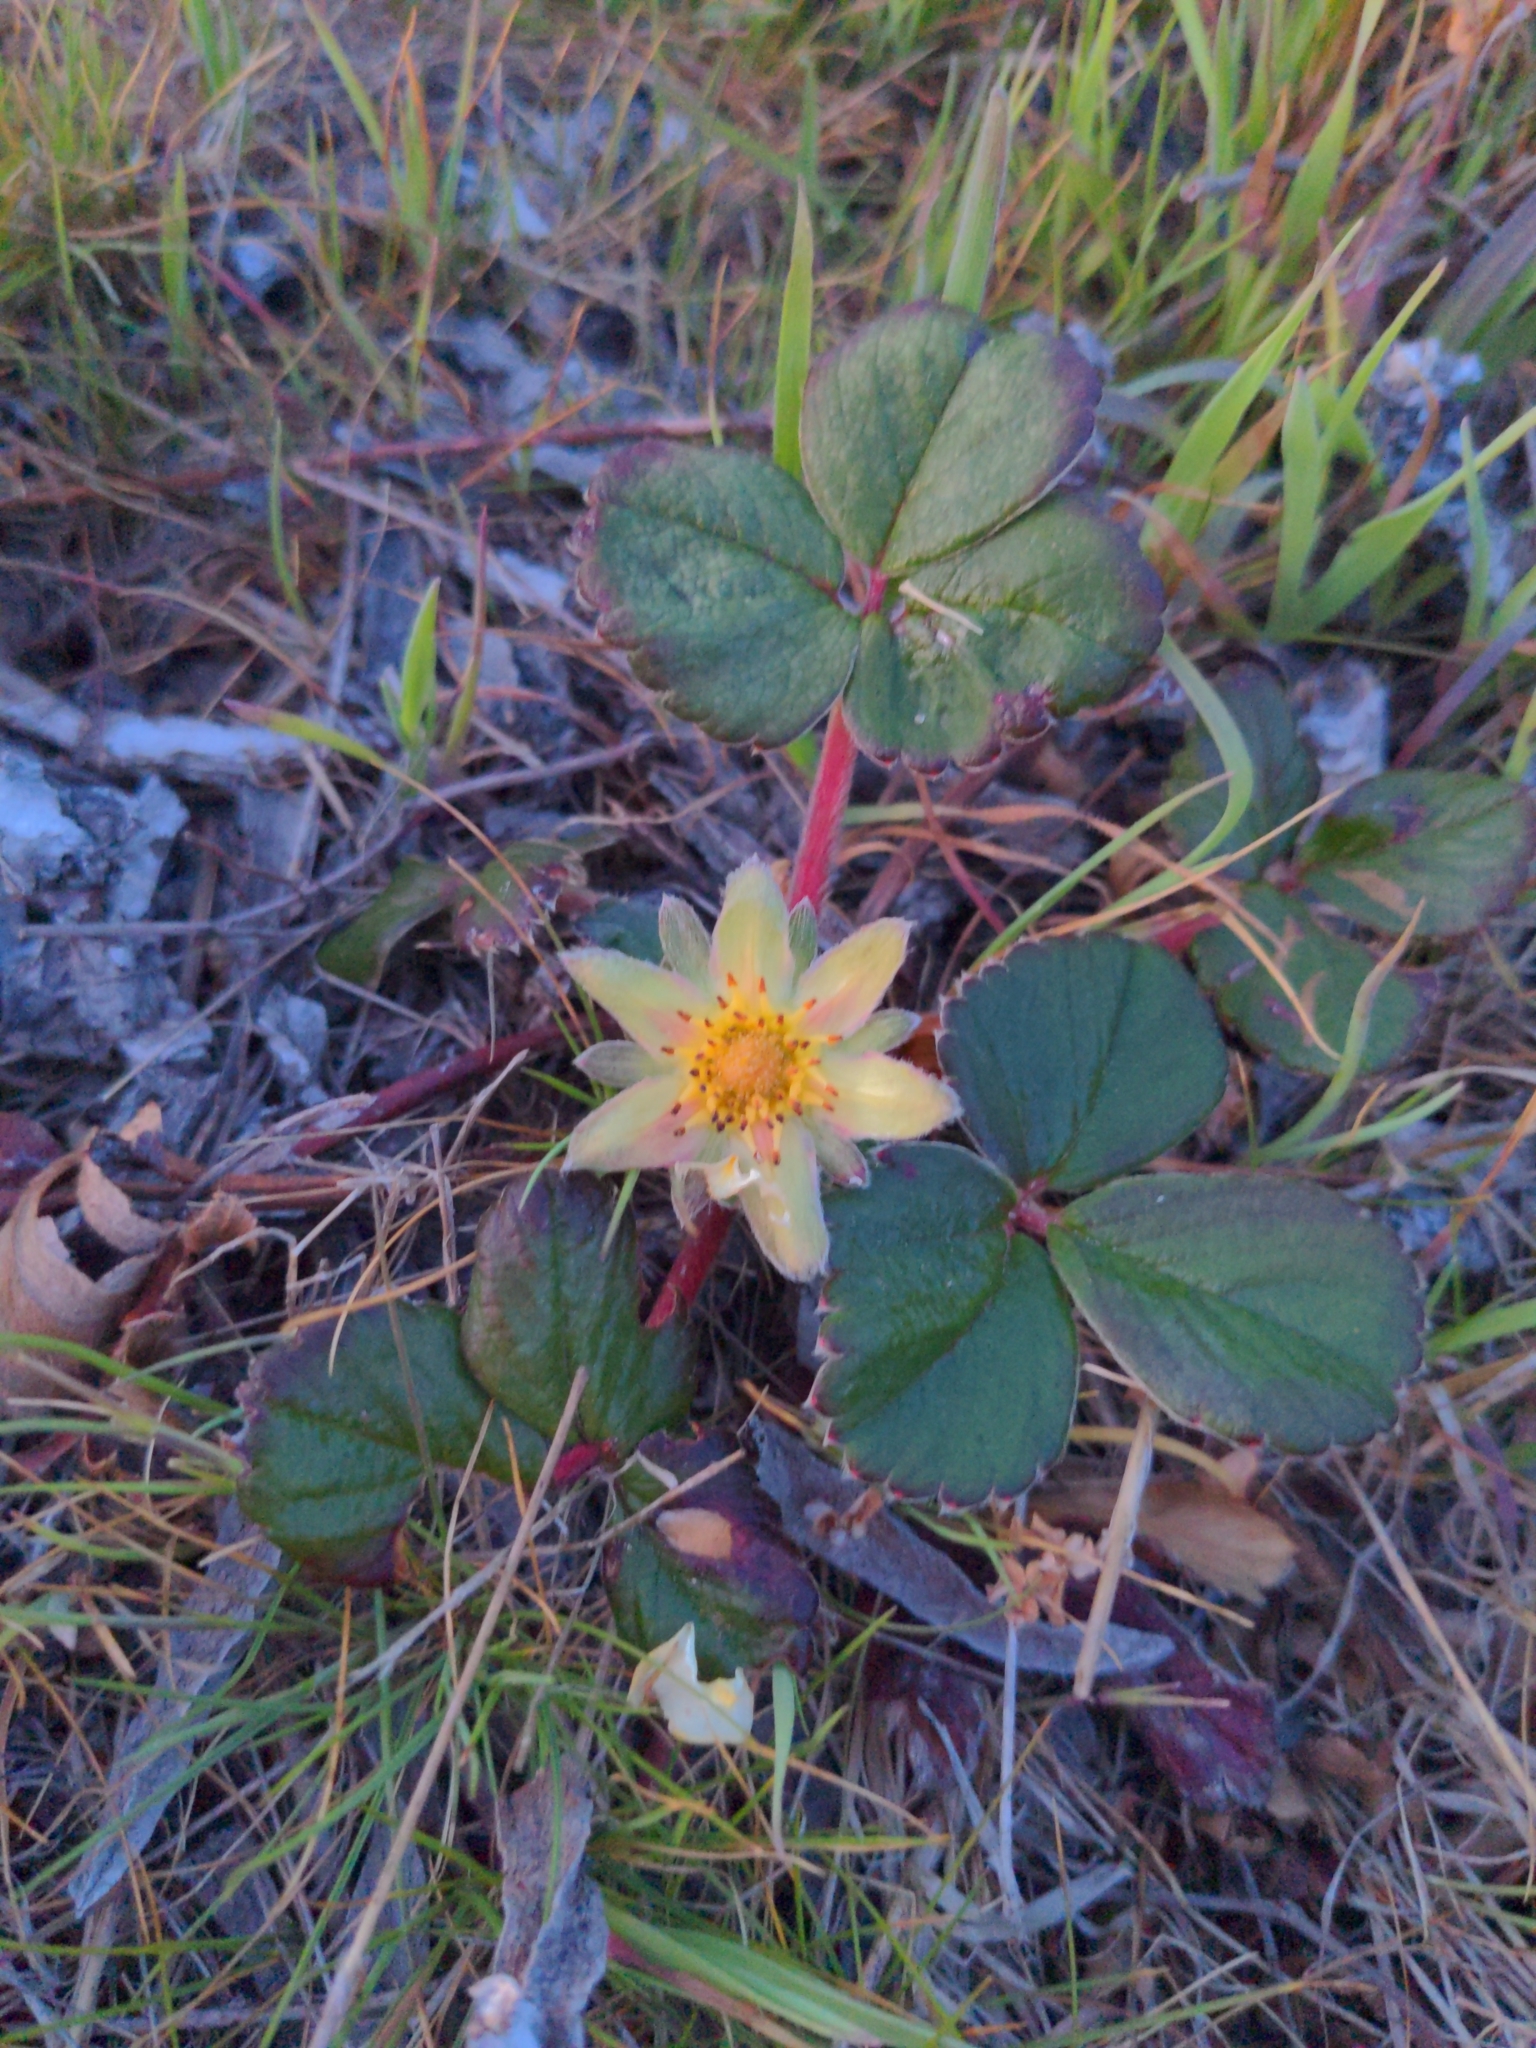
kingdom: Plantae
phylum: Tracheophyta
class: Magnoliopsida
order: Rosales
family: Rosaceae
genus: Fragaria
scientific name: Fragaria chiloensis
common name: Beach strawberry
